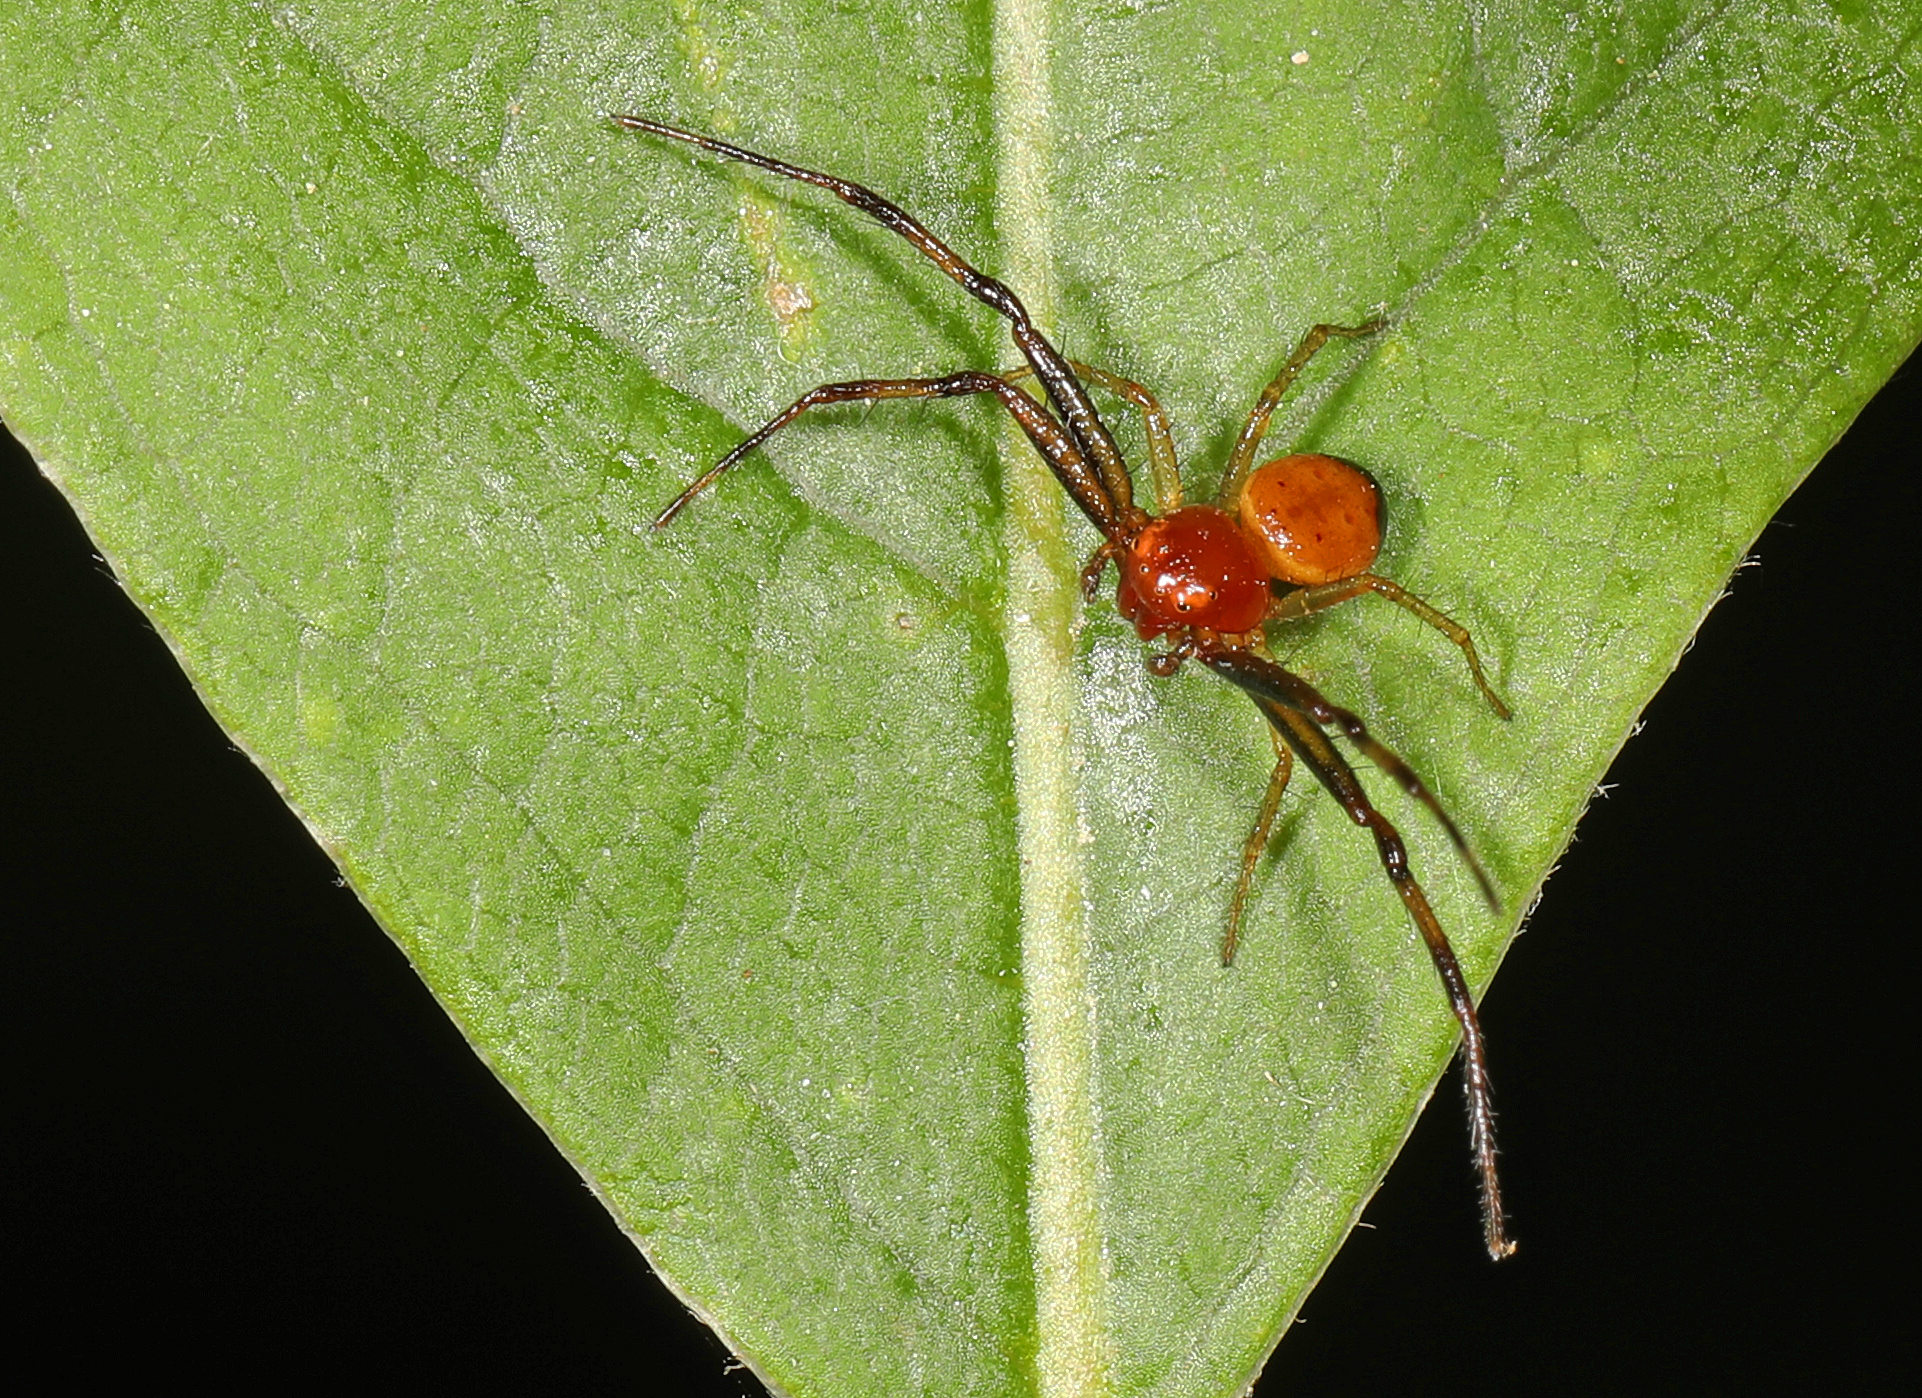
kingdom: Animalia
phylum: Arthropoda
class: Arachnida
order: Araneae
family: Thomisidae
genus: Synema
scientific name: Synema parvulum
